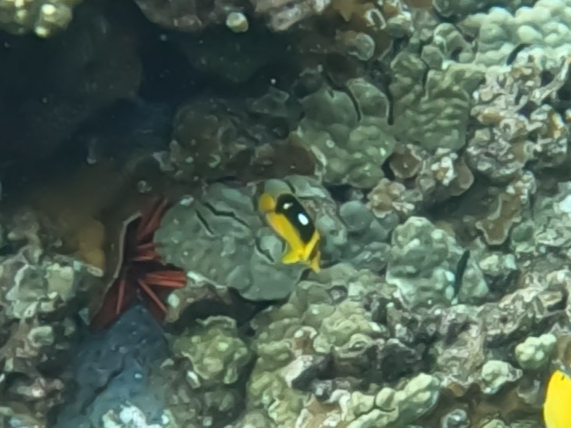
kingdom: Animalia
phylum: Chordata
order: Perciformes
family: Chaetodontidae
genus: Chaetodon
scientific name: Chaetodon quadrimaculatus
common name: Fourspot butterflyfish
